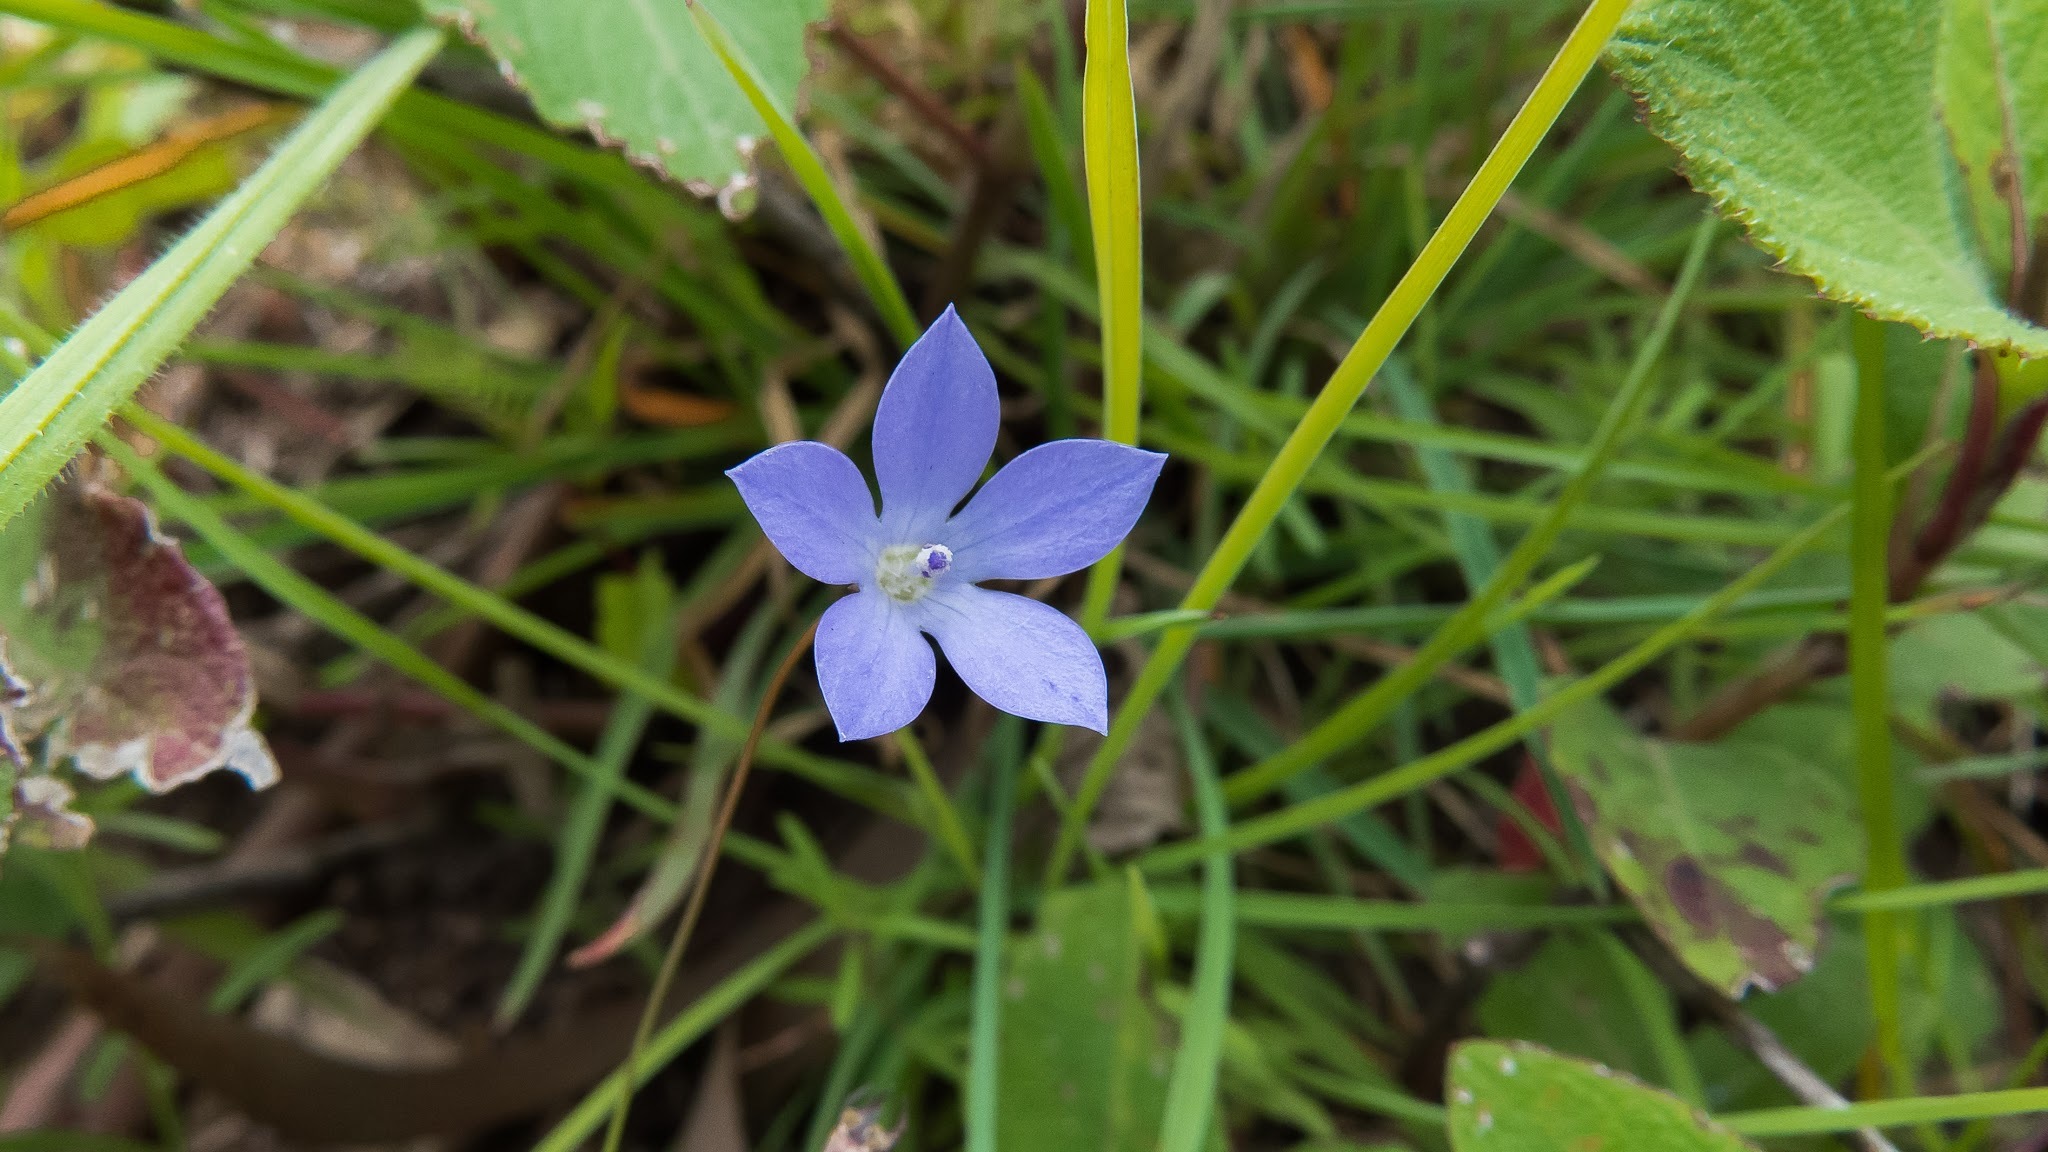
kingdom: Plantae
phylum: Tracheophyta
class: Magnoliopsida
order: Asterales
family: Campanulaceae
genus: Wahlenbergia
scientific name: Wahlenbergia marginata
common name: Southern rockbell
